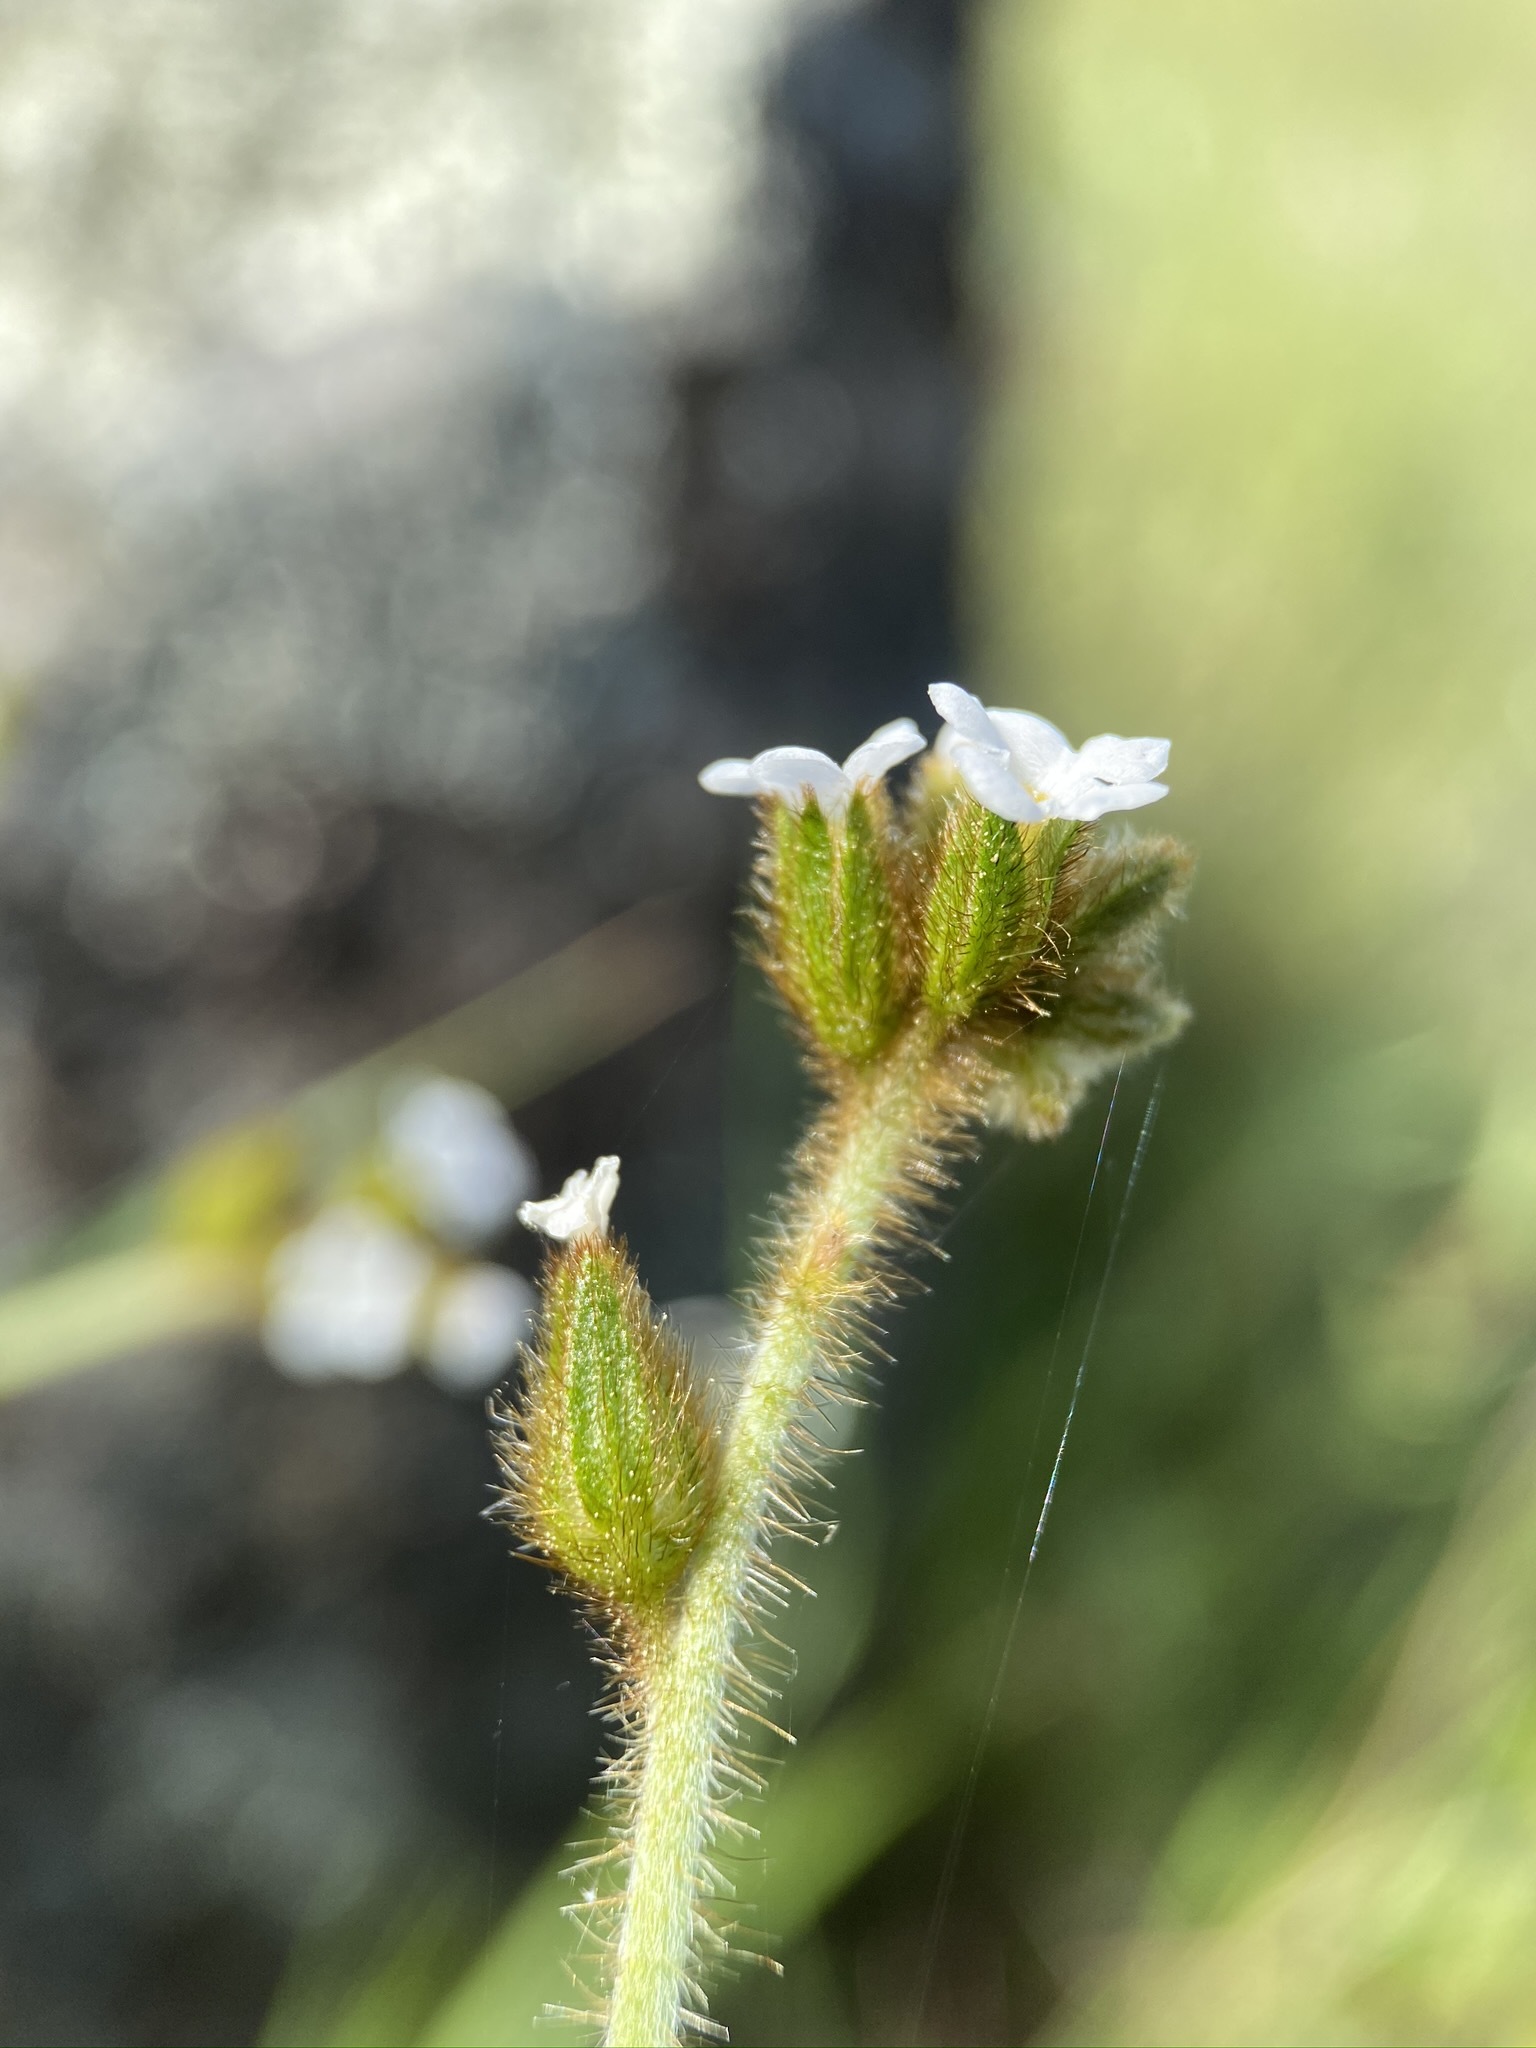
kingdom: Plantae
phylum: Tracheophyta
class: Magnoliopsida
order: Boraginales
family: Boraginaceae
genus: Plagiobothrys
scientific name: Plagiobothrys fulvus
